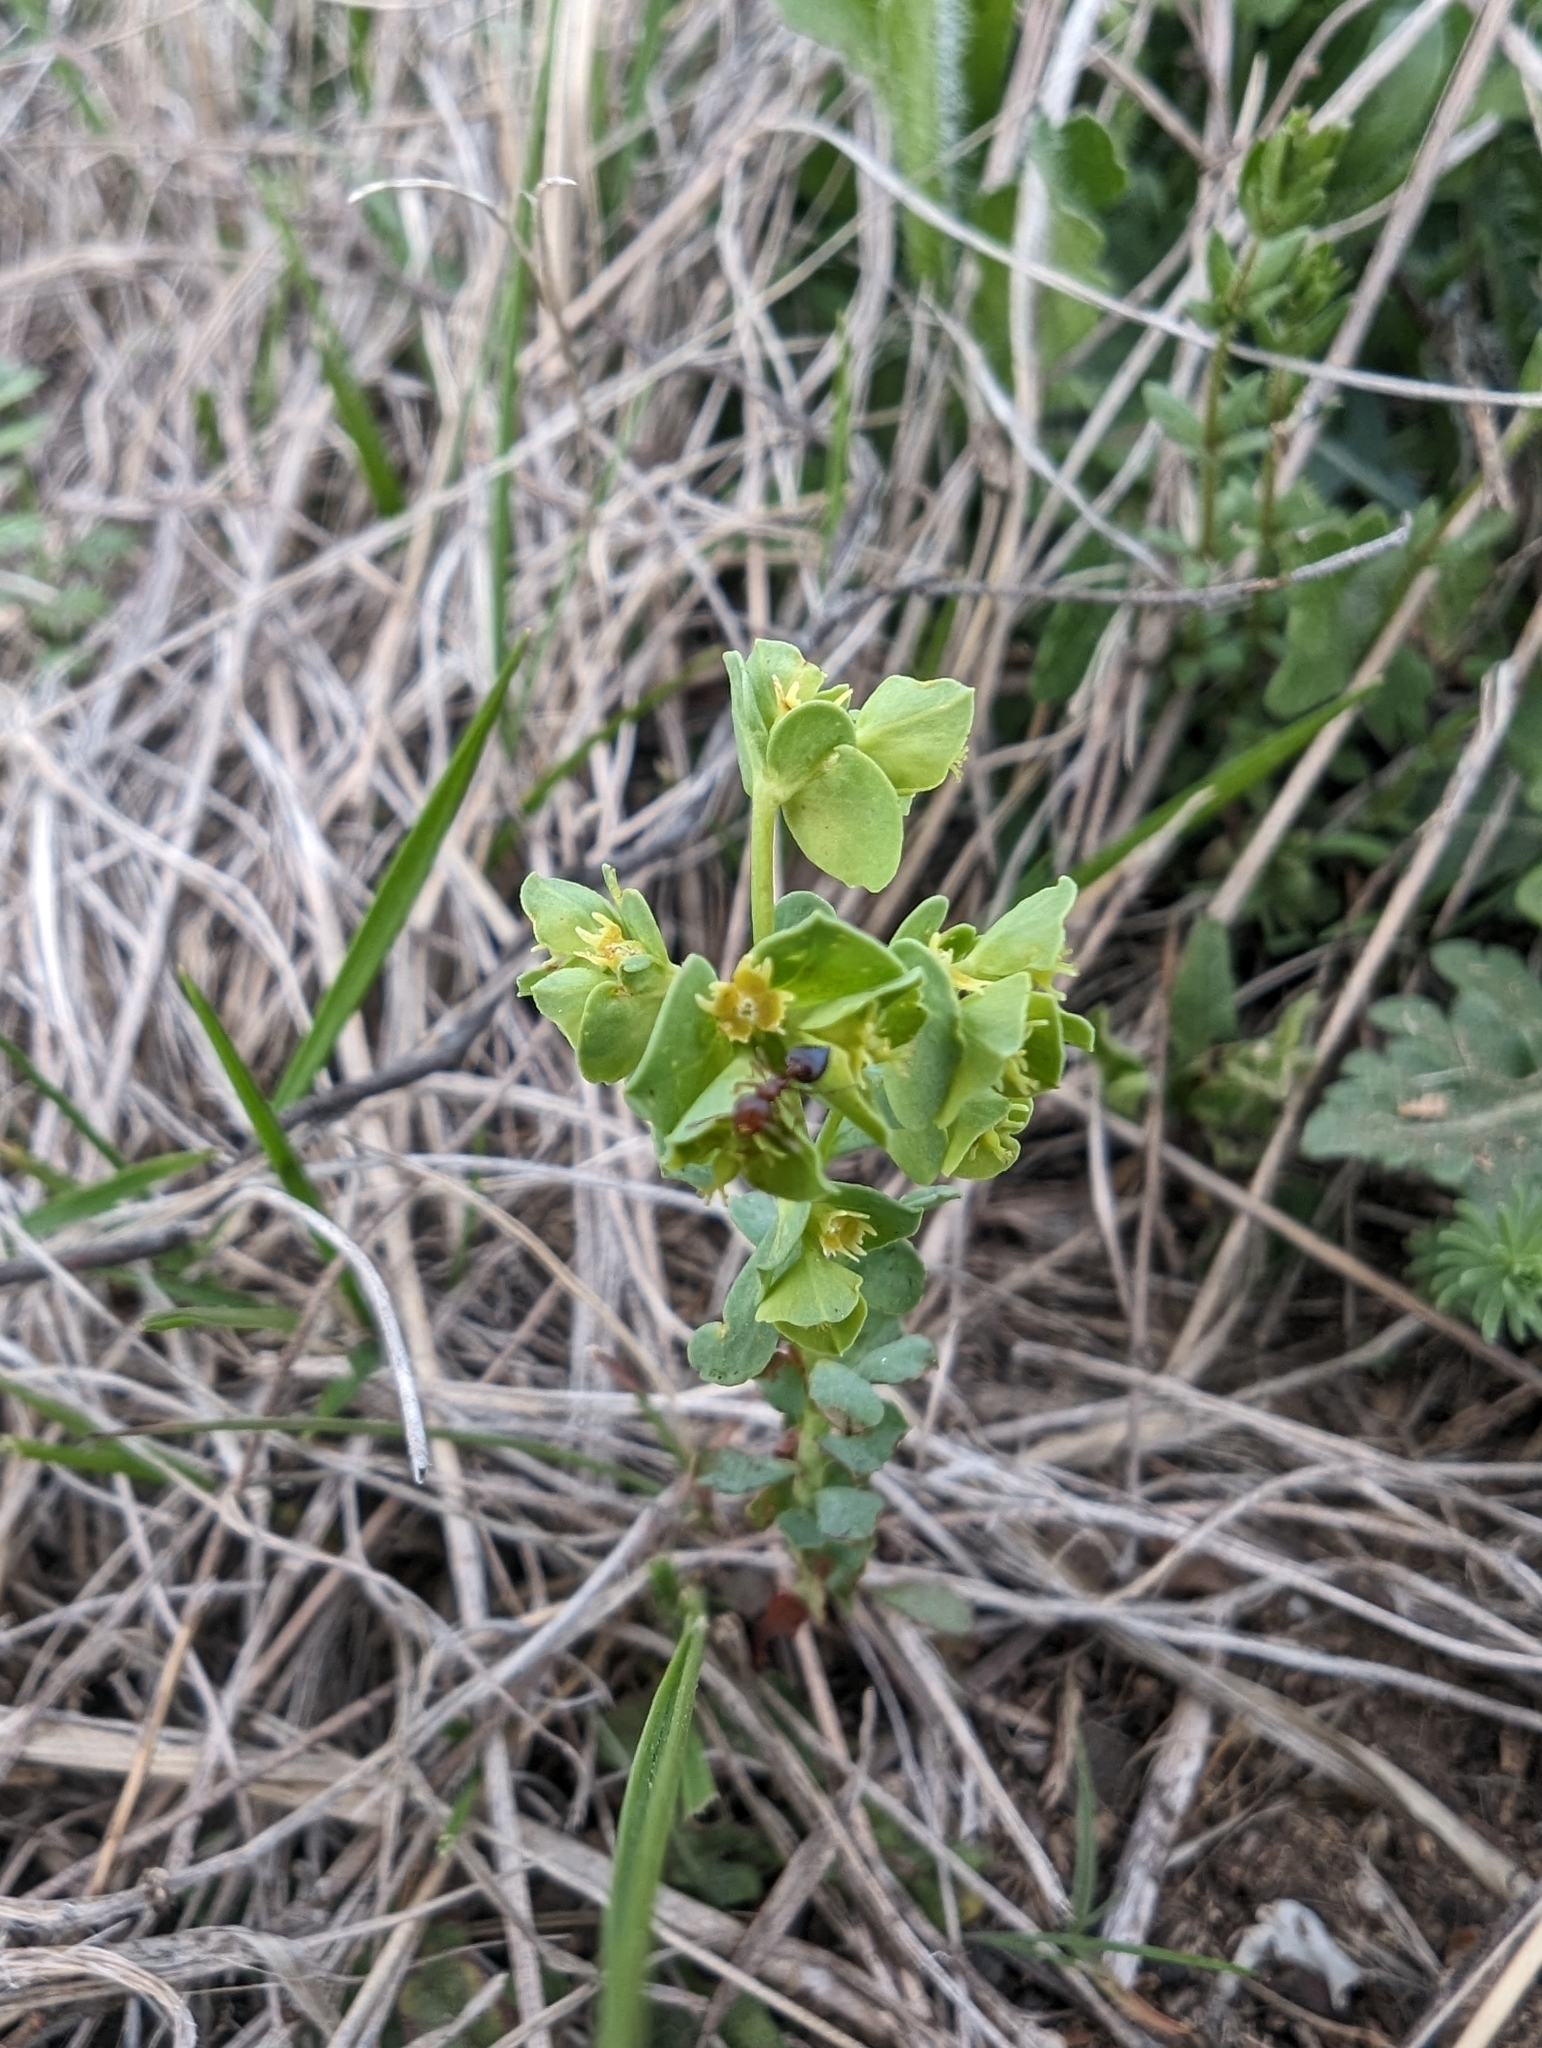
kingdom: Plantae
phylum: Tracheophyta
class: Magnoliopsida
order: Malpighiales
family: Euphorbiaceae
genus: Euphorbia
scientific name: Euphorbia longicruris
